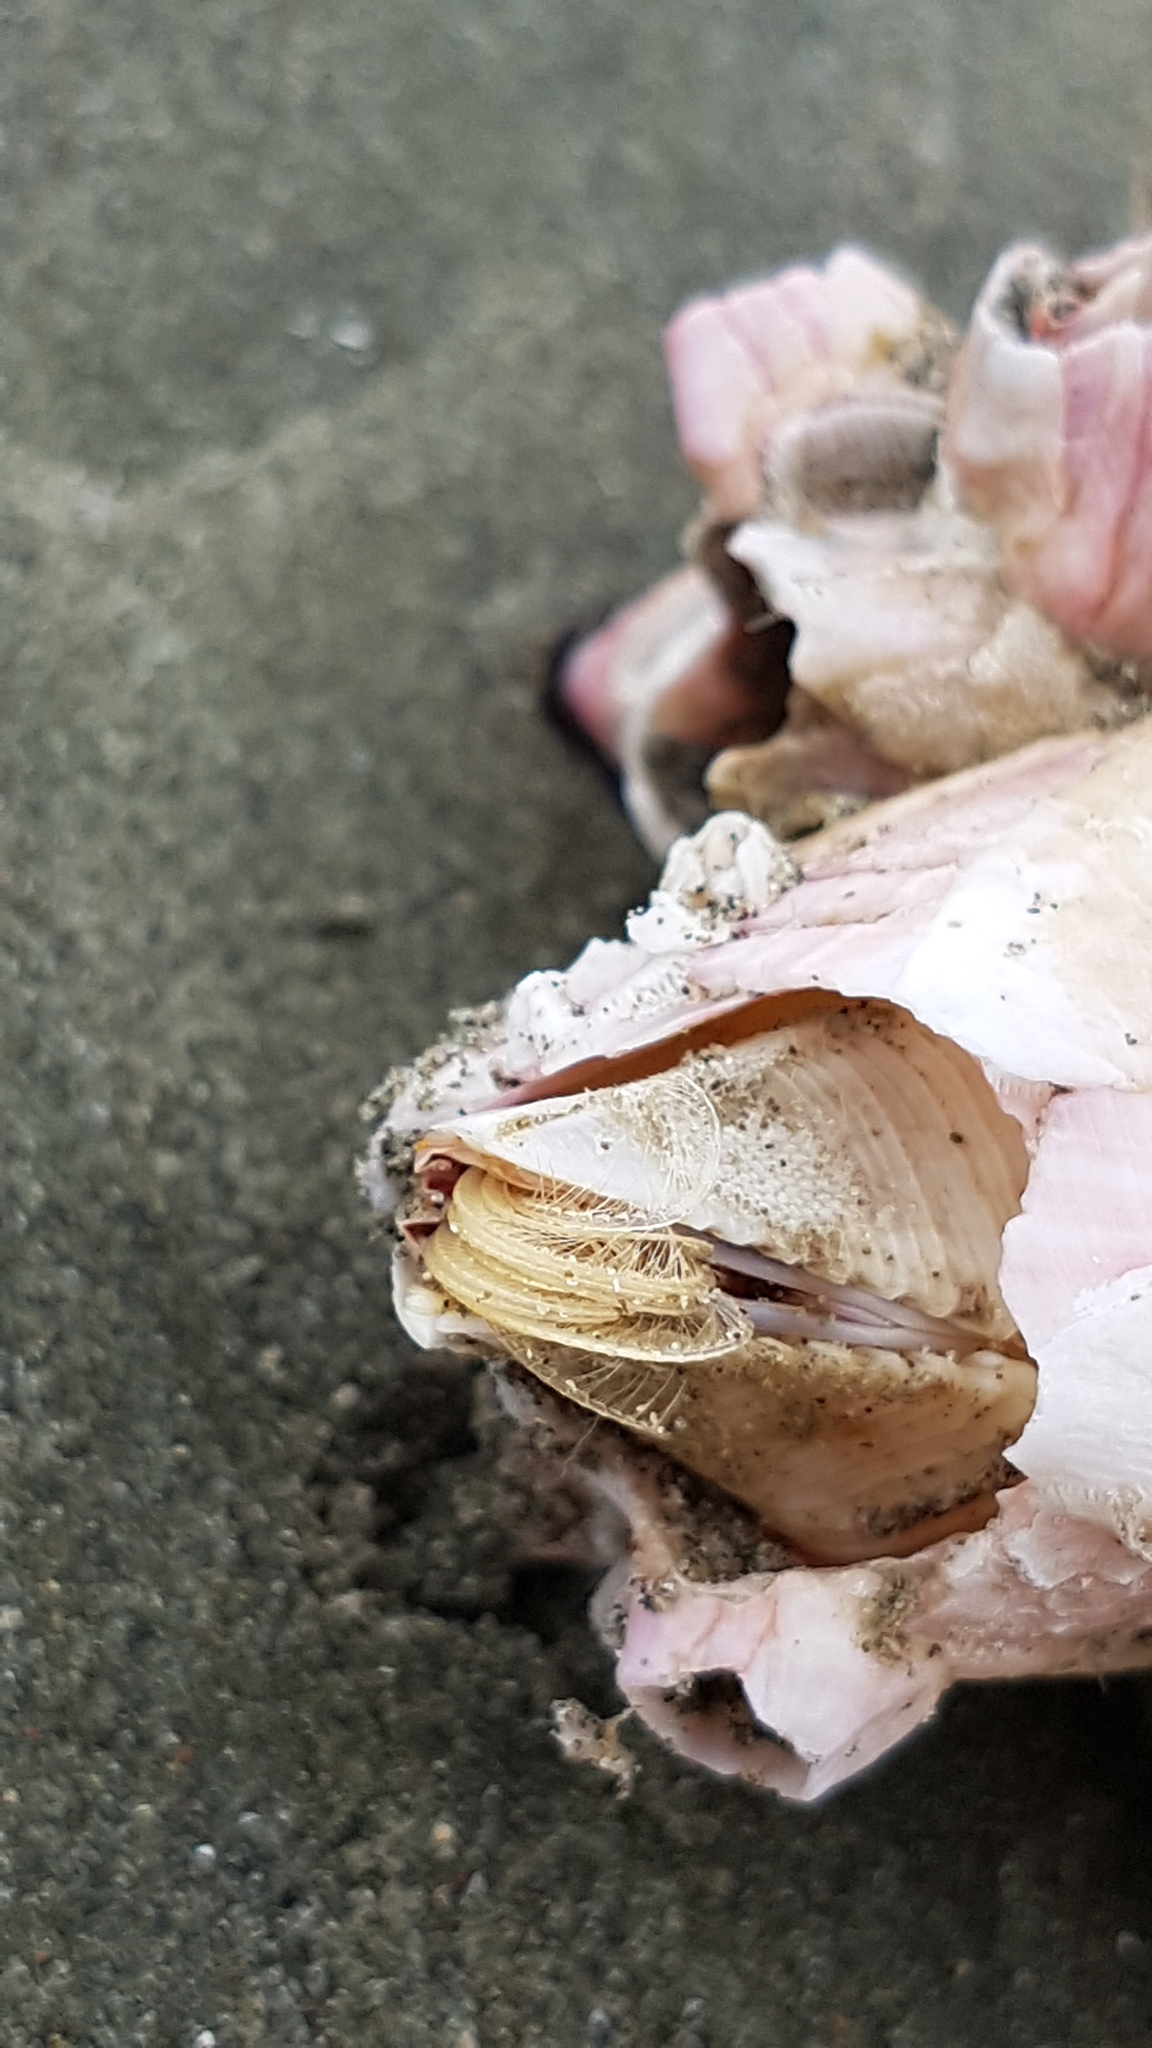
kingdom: Animalia
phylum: Arthropoda
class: Maxillopoda
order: Sessilia
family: Balanidae
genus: Notomegabalanus
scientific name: Notomegabalanus decorus
